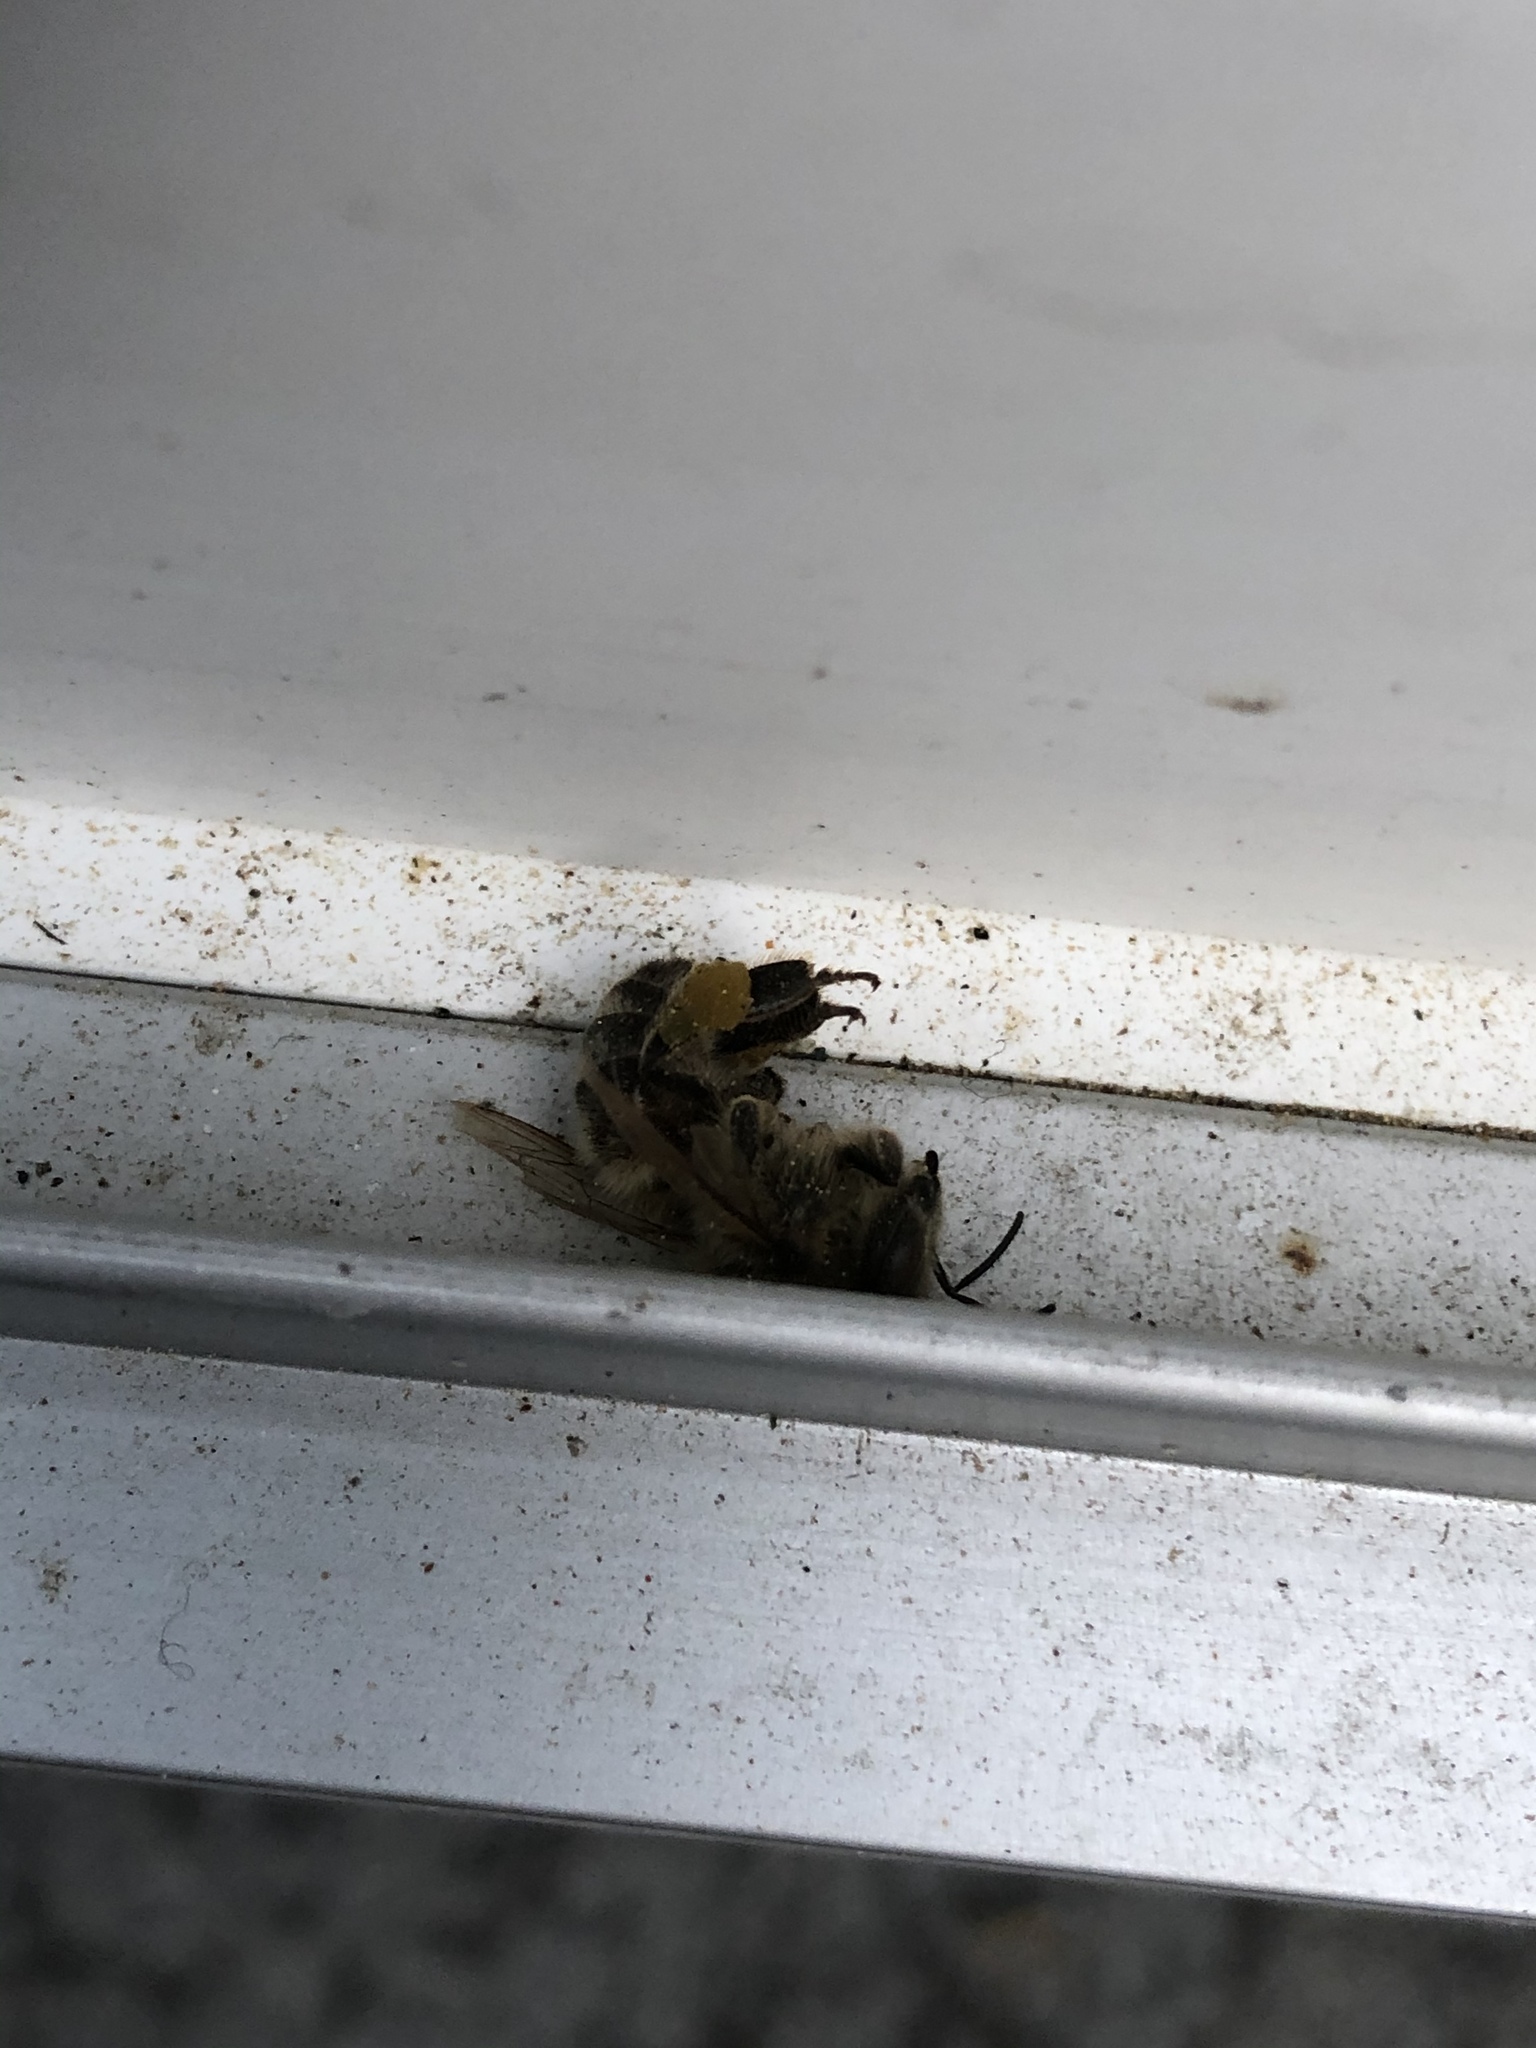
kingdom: Animalia
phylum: Arthropoda
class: Insecta
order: Hymenoptera
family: Apidae
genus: Apis
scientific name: Apis mellifera
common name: Honey bee
